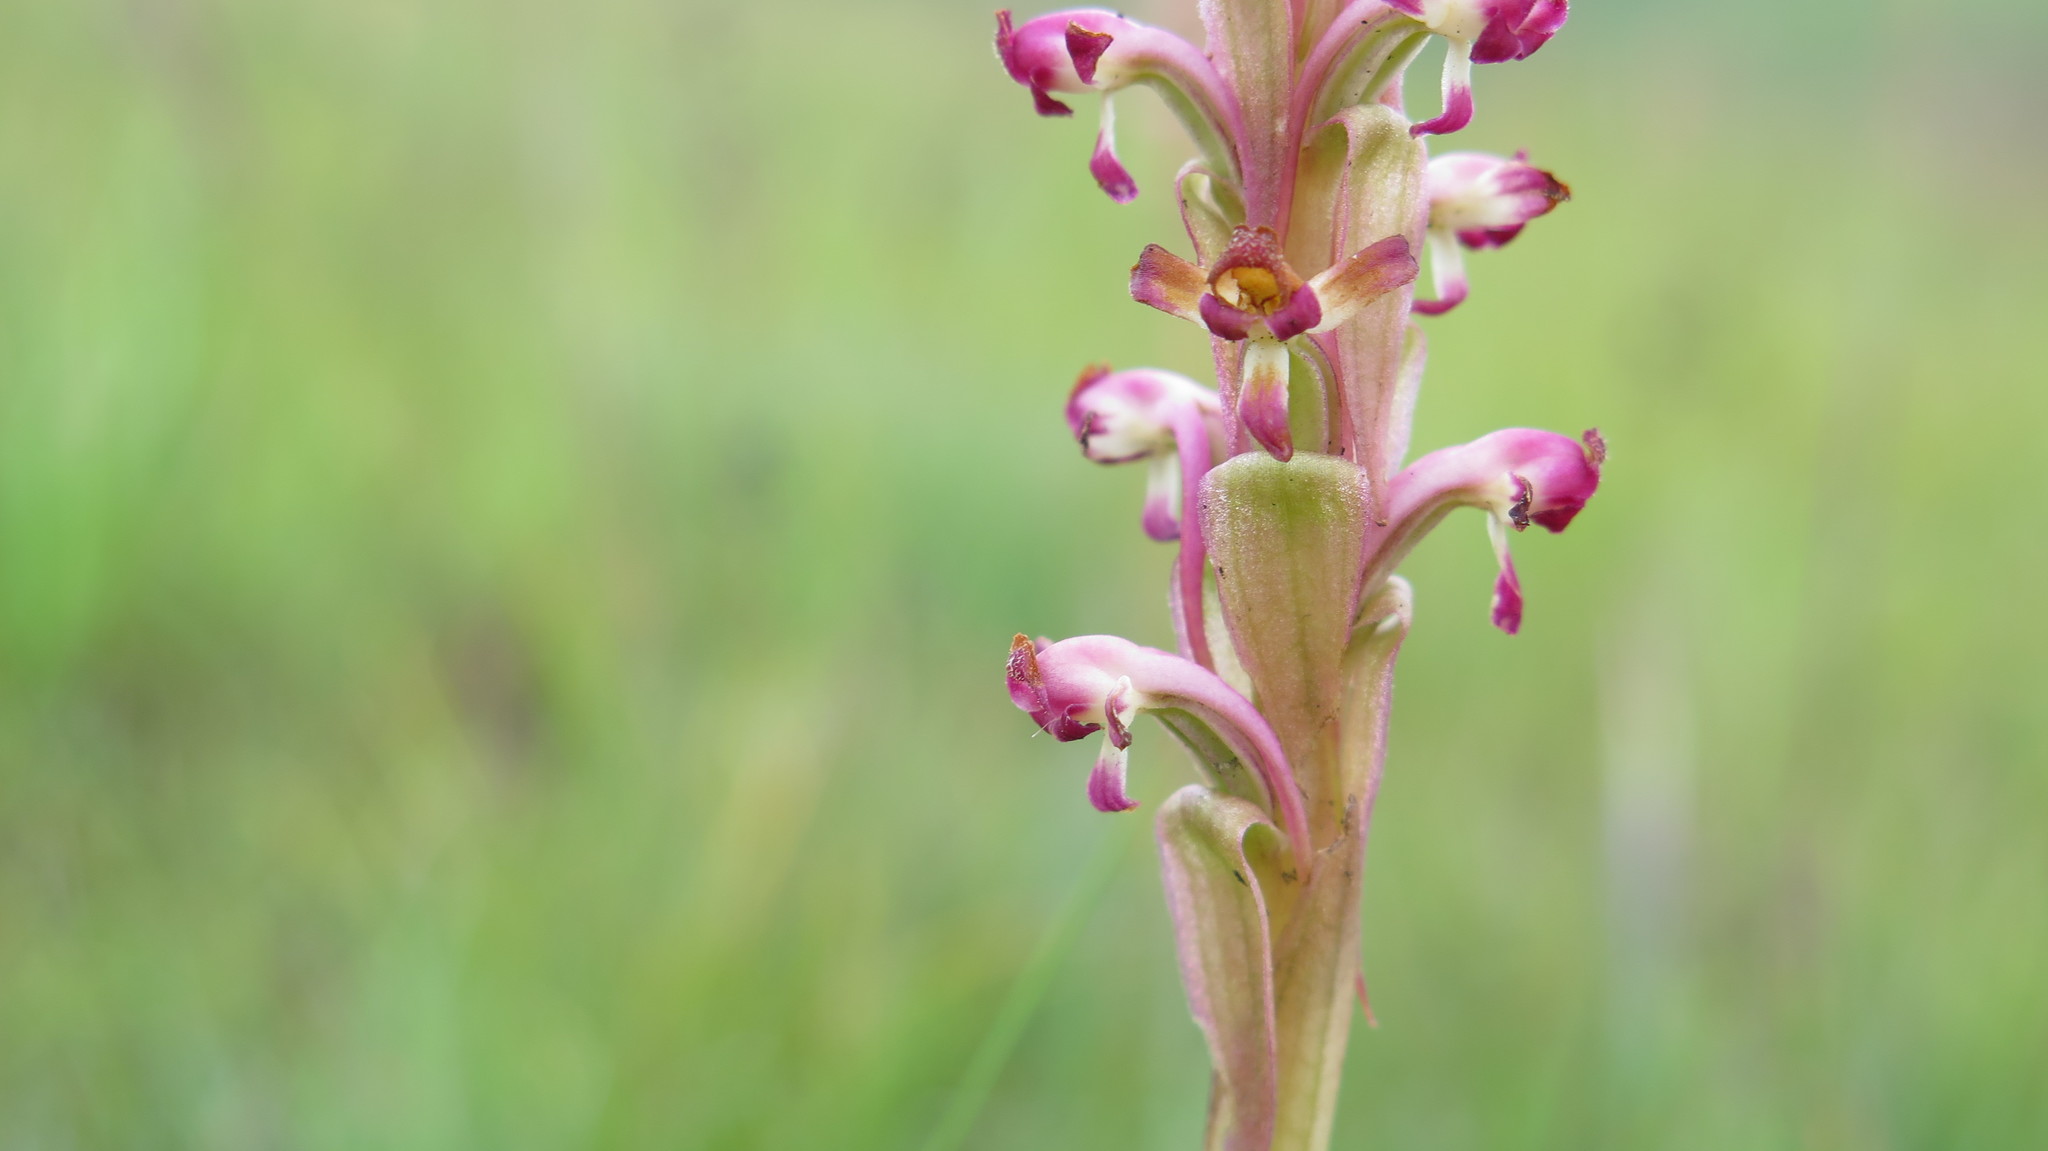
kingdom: Plantae
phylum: Tracheophyta
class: Liliopsida
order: Asparagales
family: Orchidaceae
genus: Satyrium
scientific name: Satyrium longicauda
